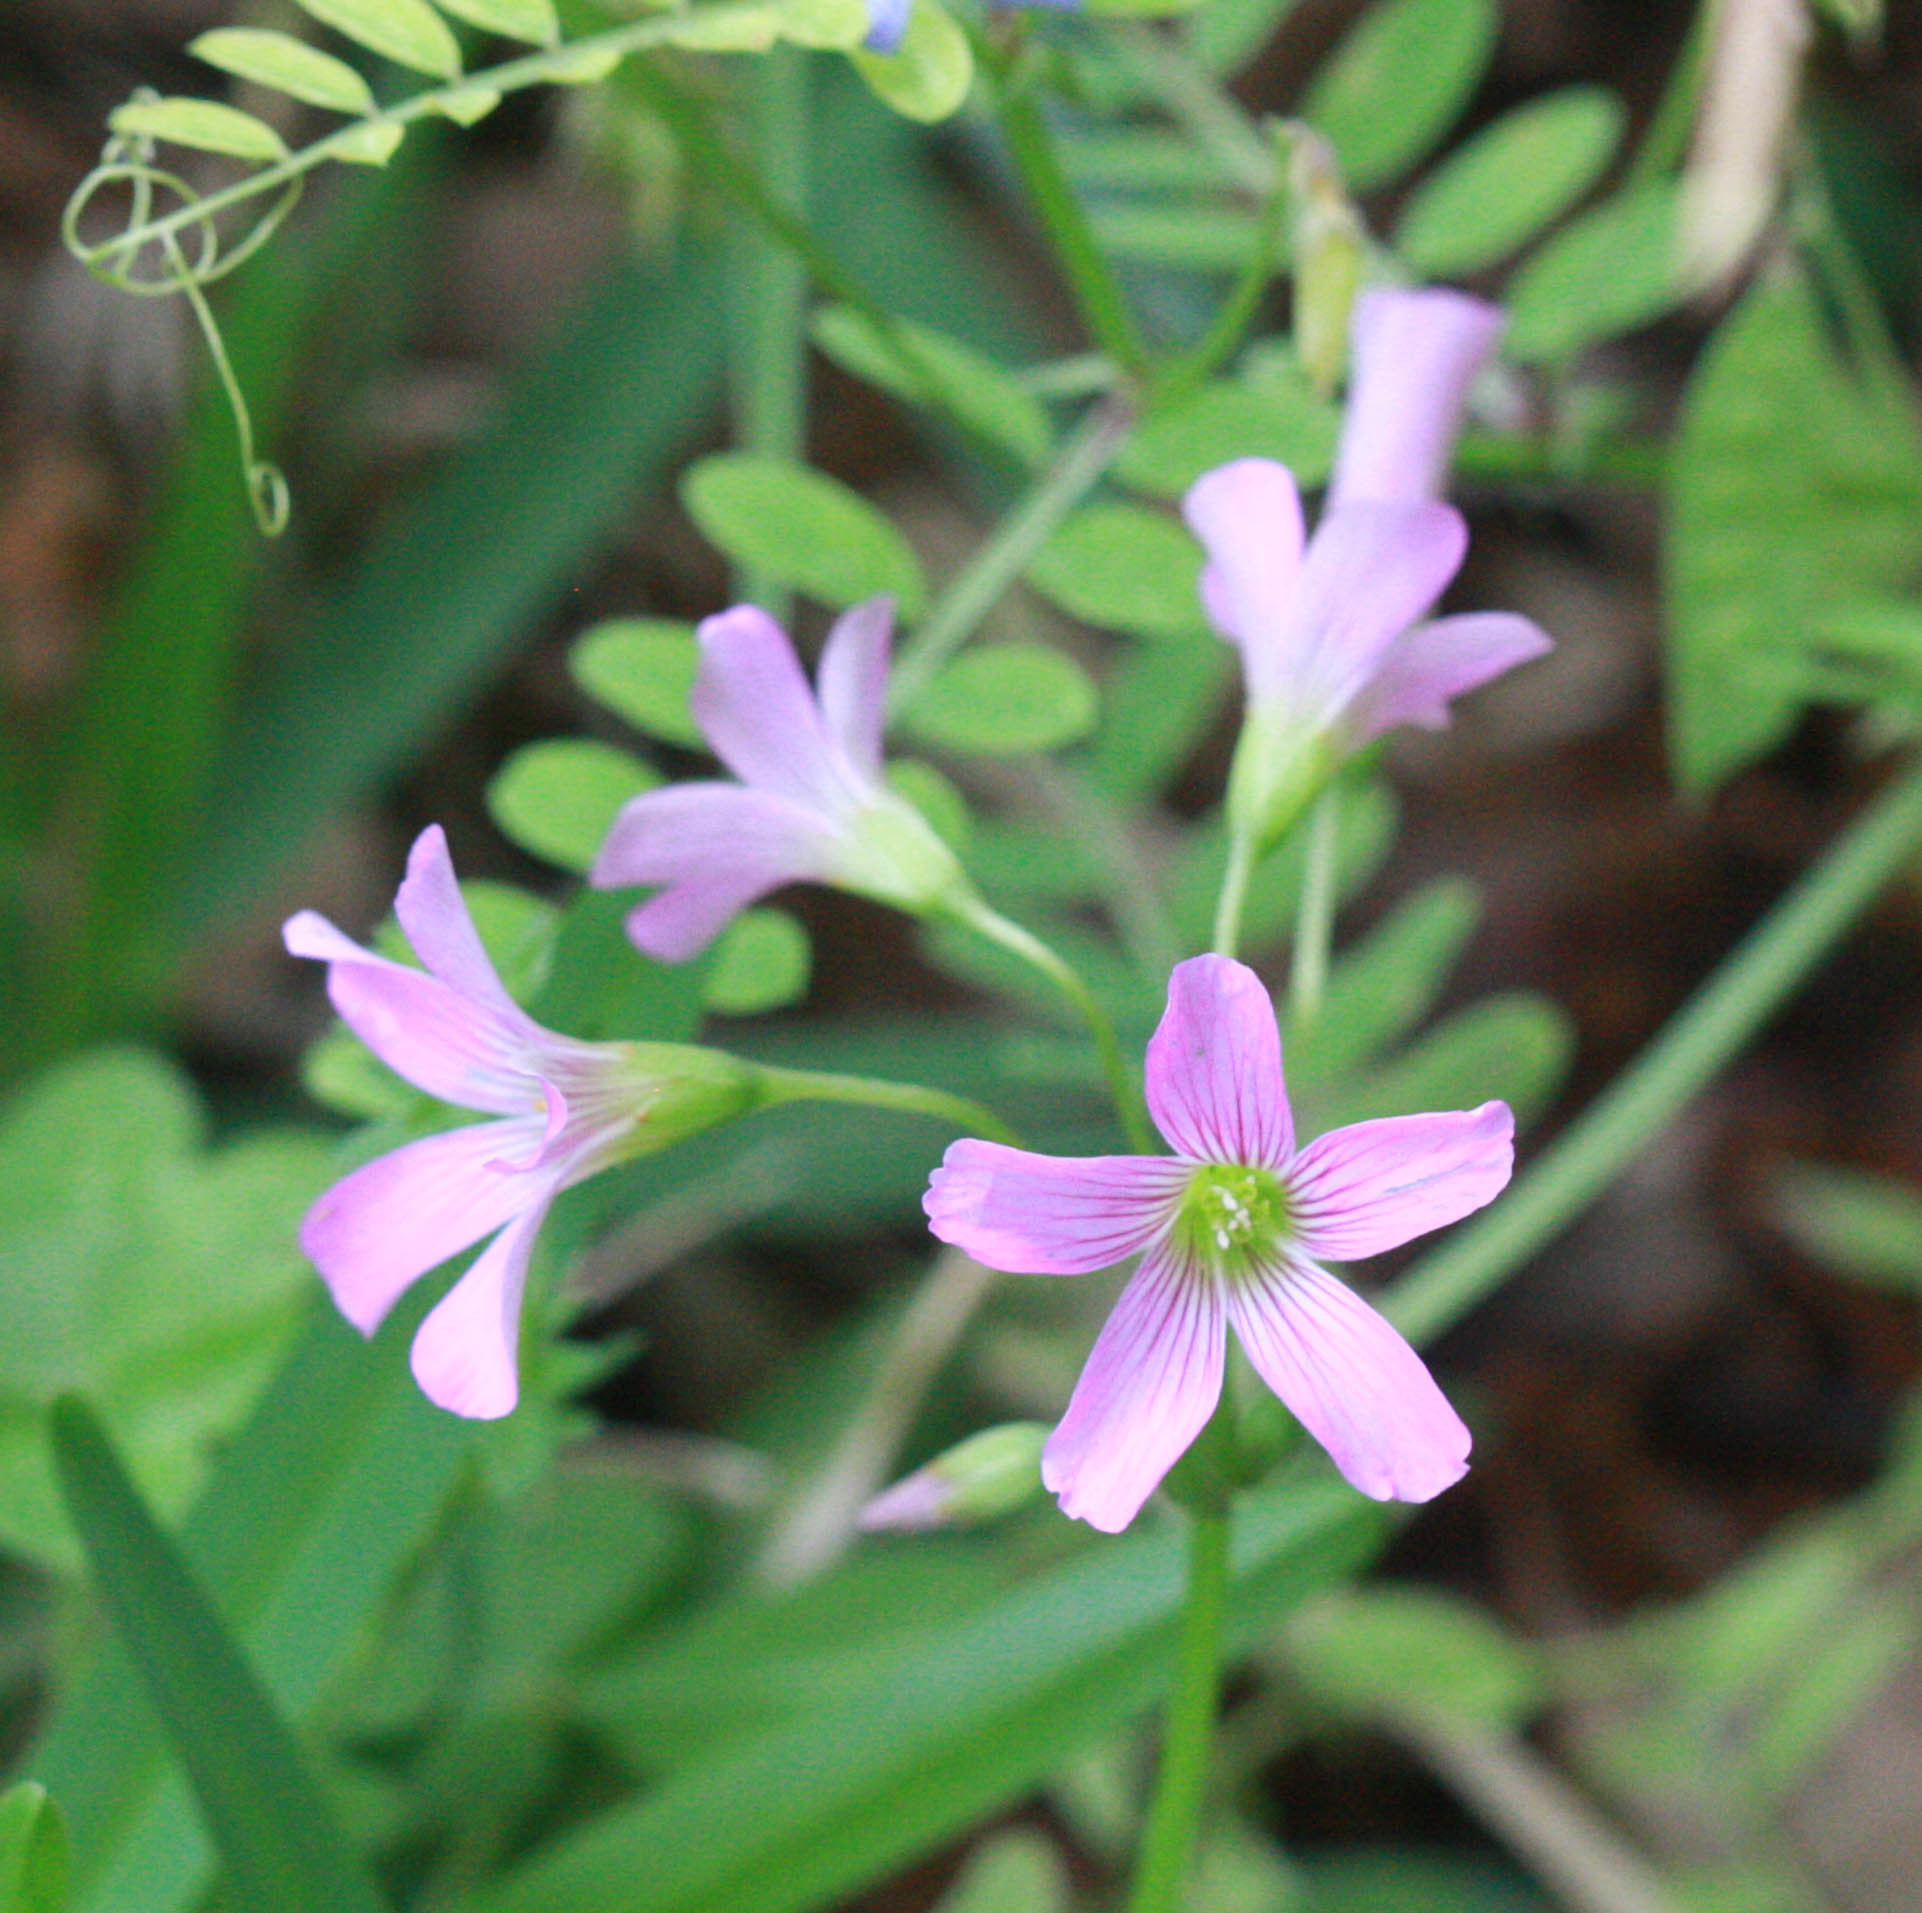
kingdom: Plantae
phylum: Tracheophyta
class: Magnoliopsida
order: Oxalidales
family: Oxalidaceae
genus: Oxalis
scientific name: Oxalis debilis
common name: Large-flowered pink-sorrel
